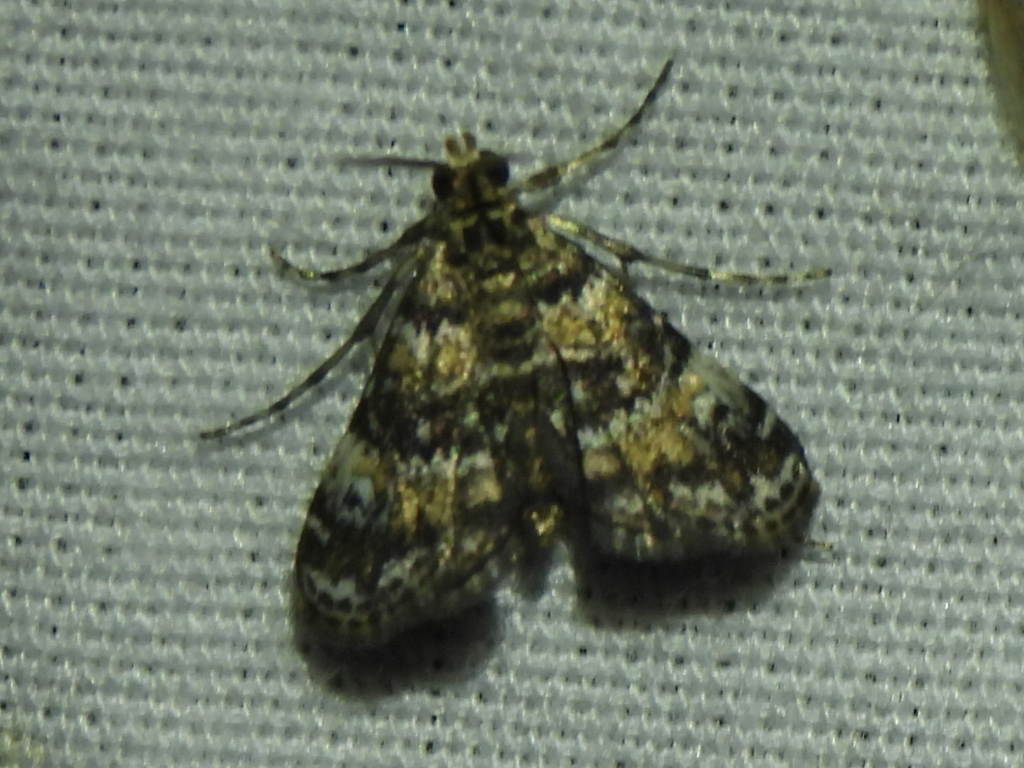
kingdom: Animalia
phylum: Arthropoda
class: Insecta
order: Lepidoptera
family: Crambidae
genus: Elophila
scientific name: Elophila obliteralis
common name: Waterlily leafcutter moth
